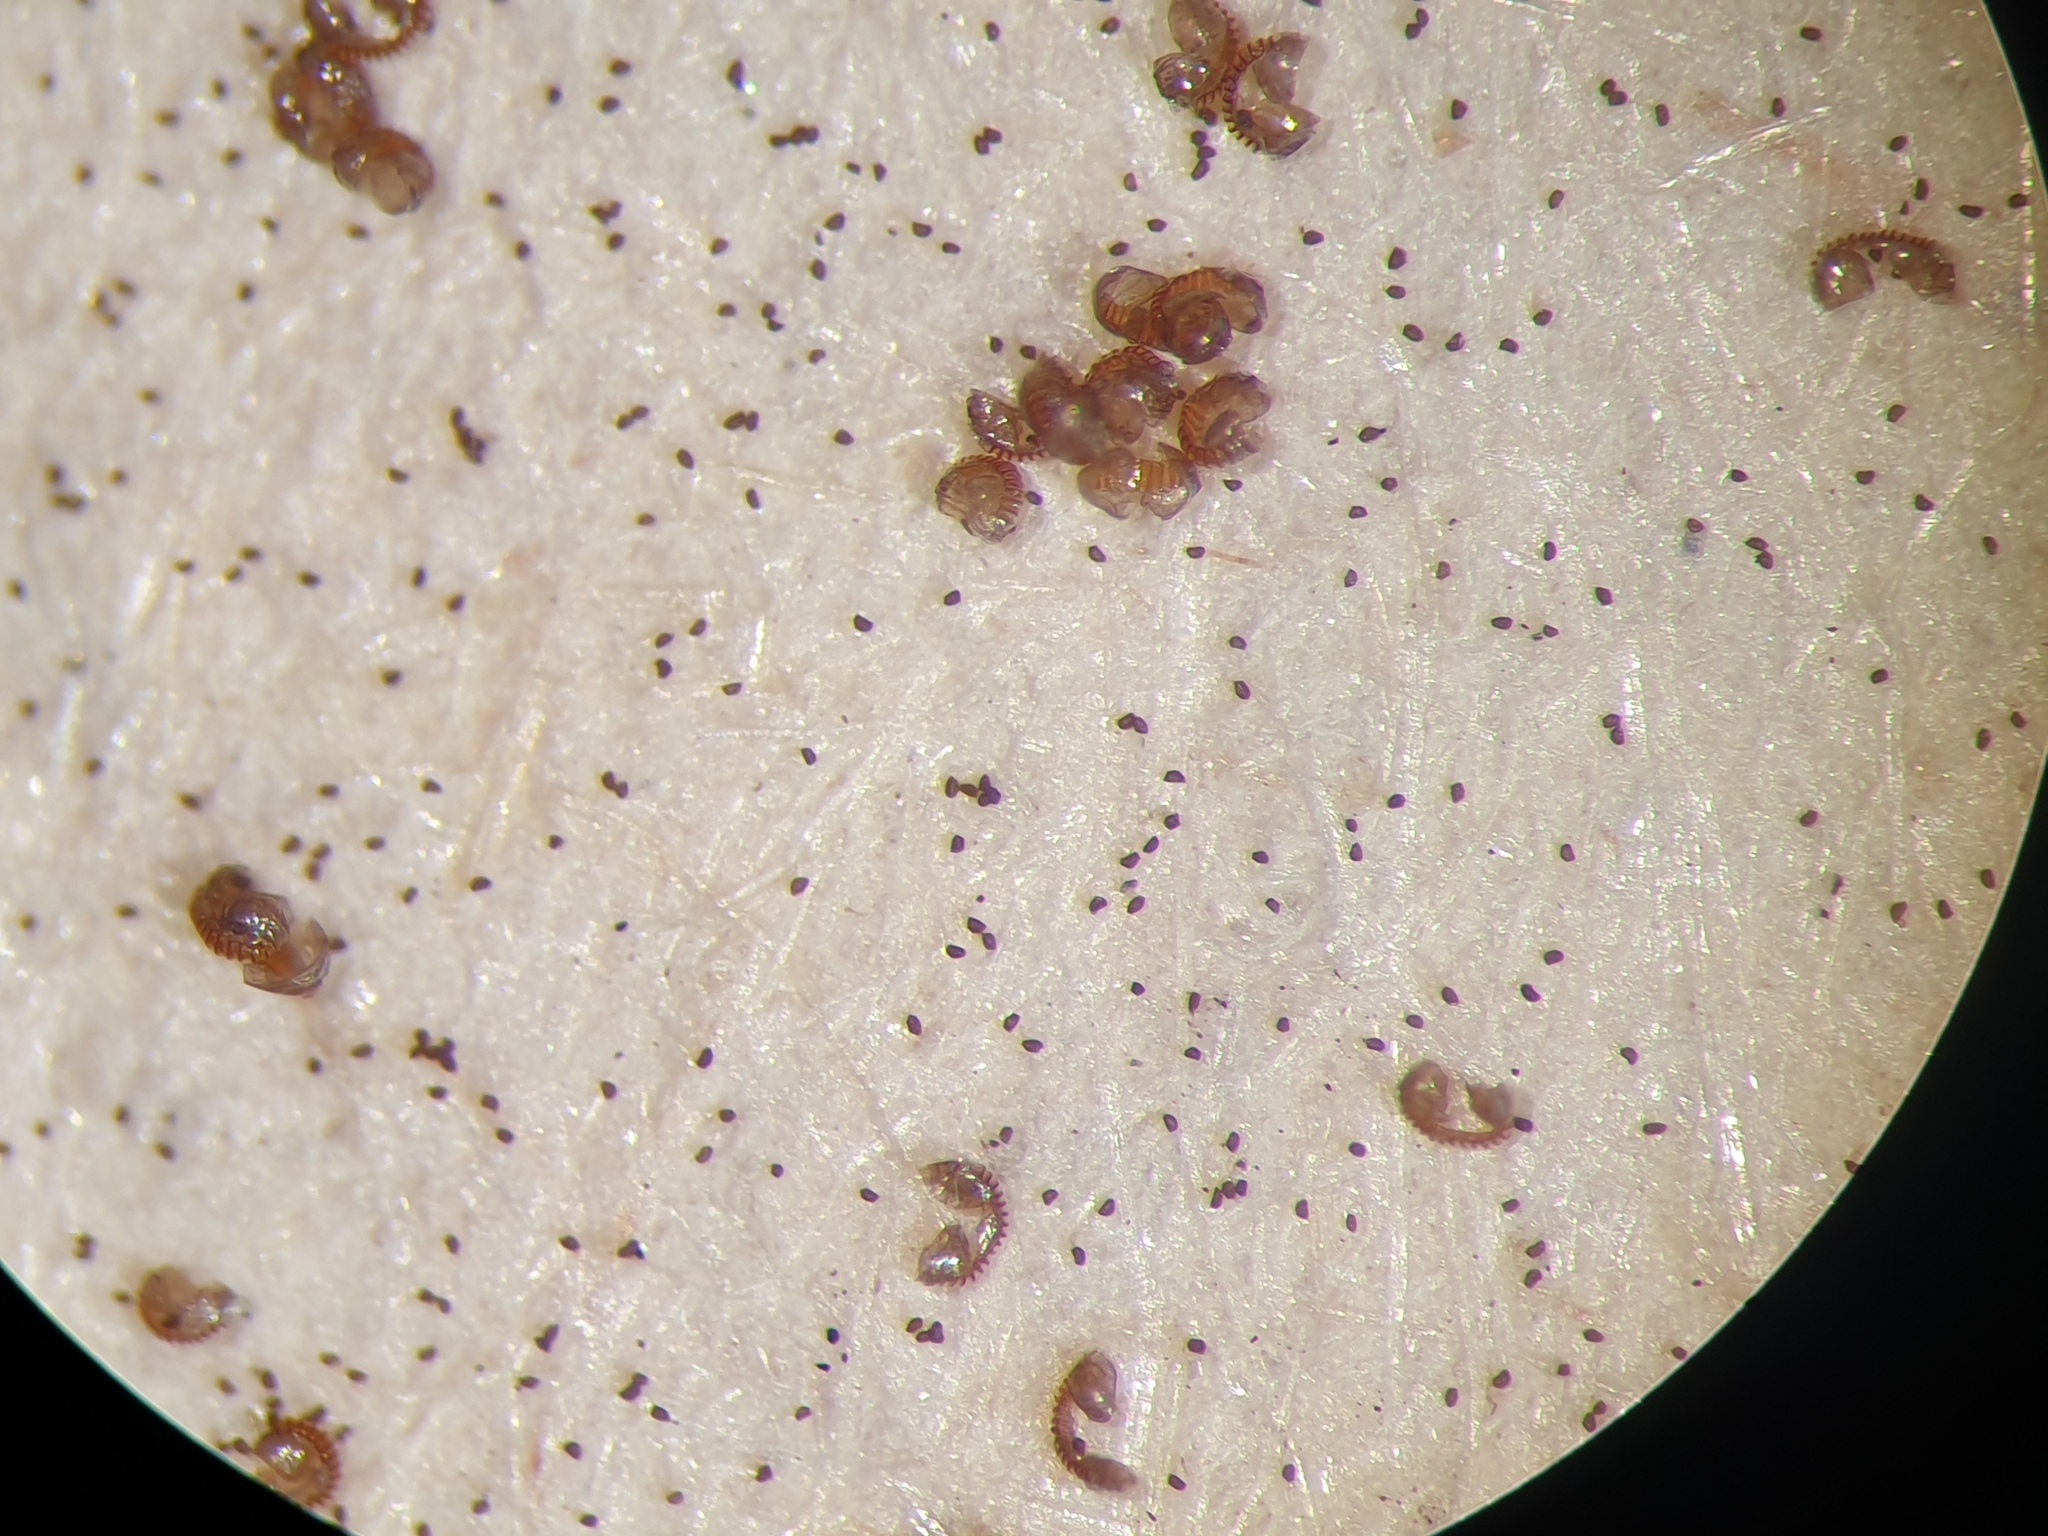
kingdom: Plantae
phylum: Tracheophyta
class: Polypodiopsida
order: Polypodiales
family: Dryopteridaceae
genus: Dryopteris
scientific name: Dryopteris carthusiana
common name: Narrow buckler-fern
